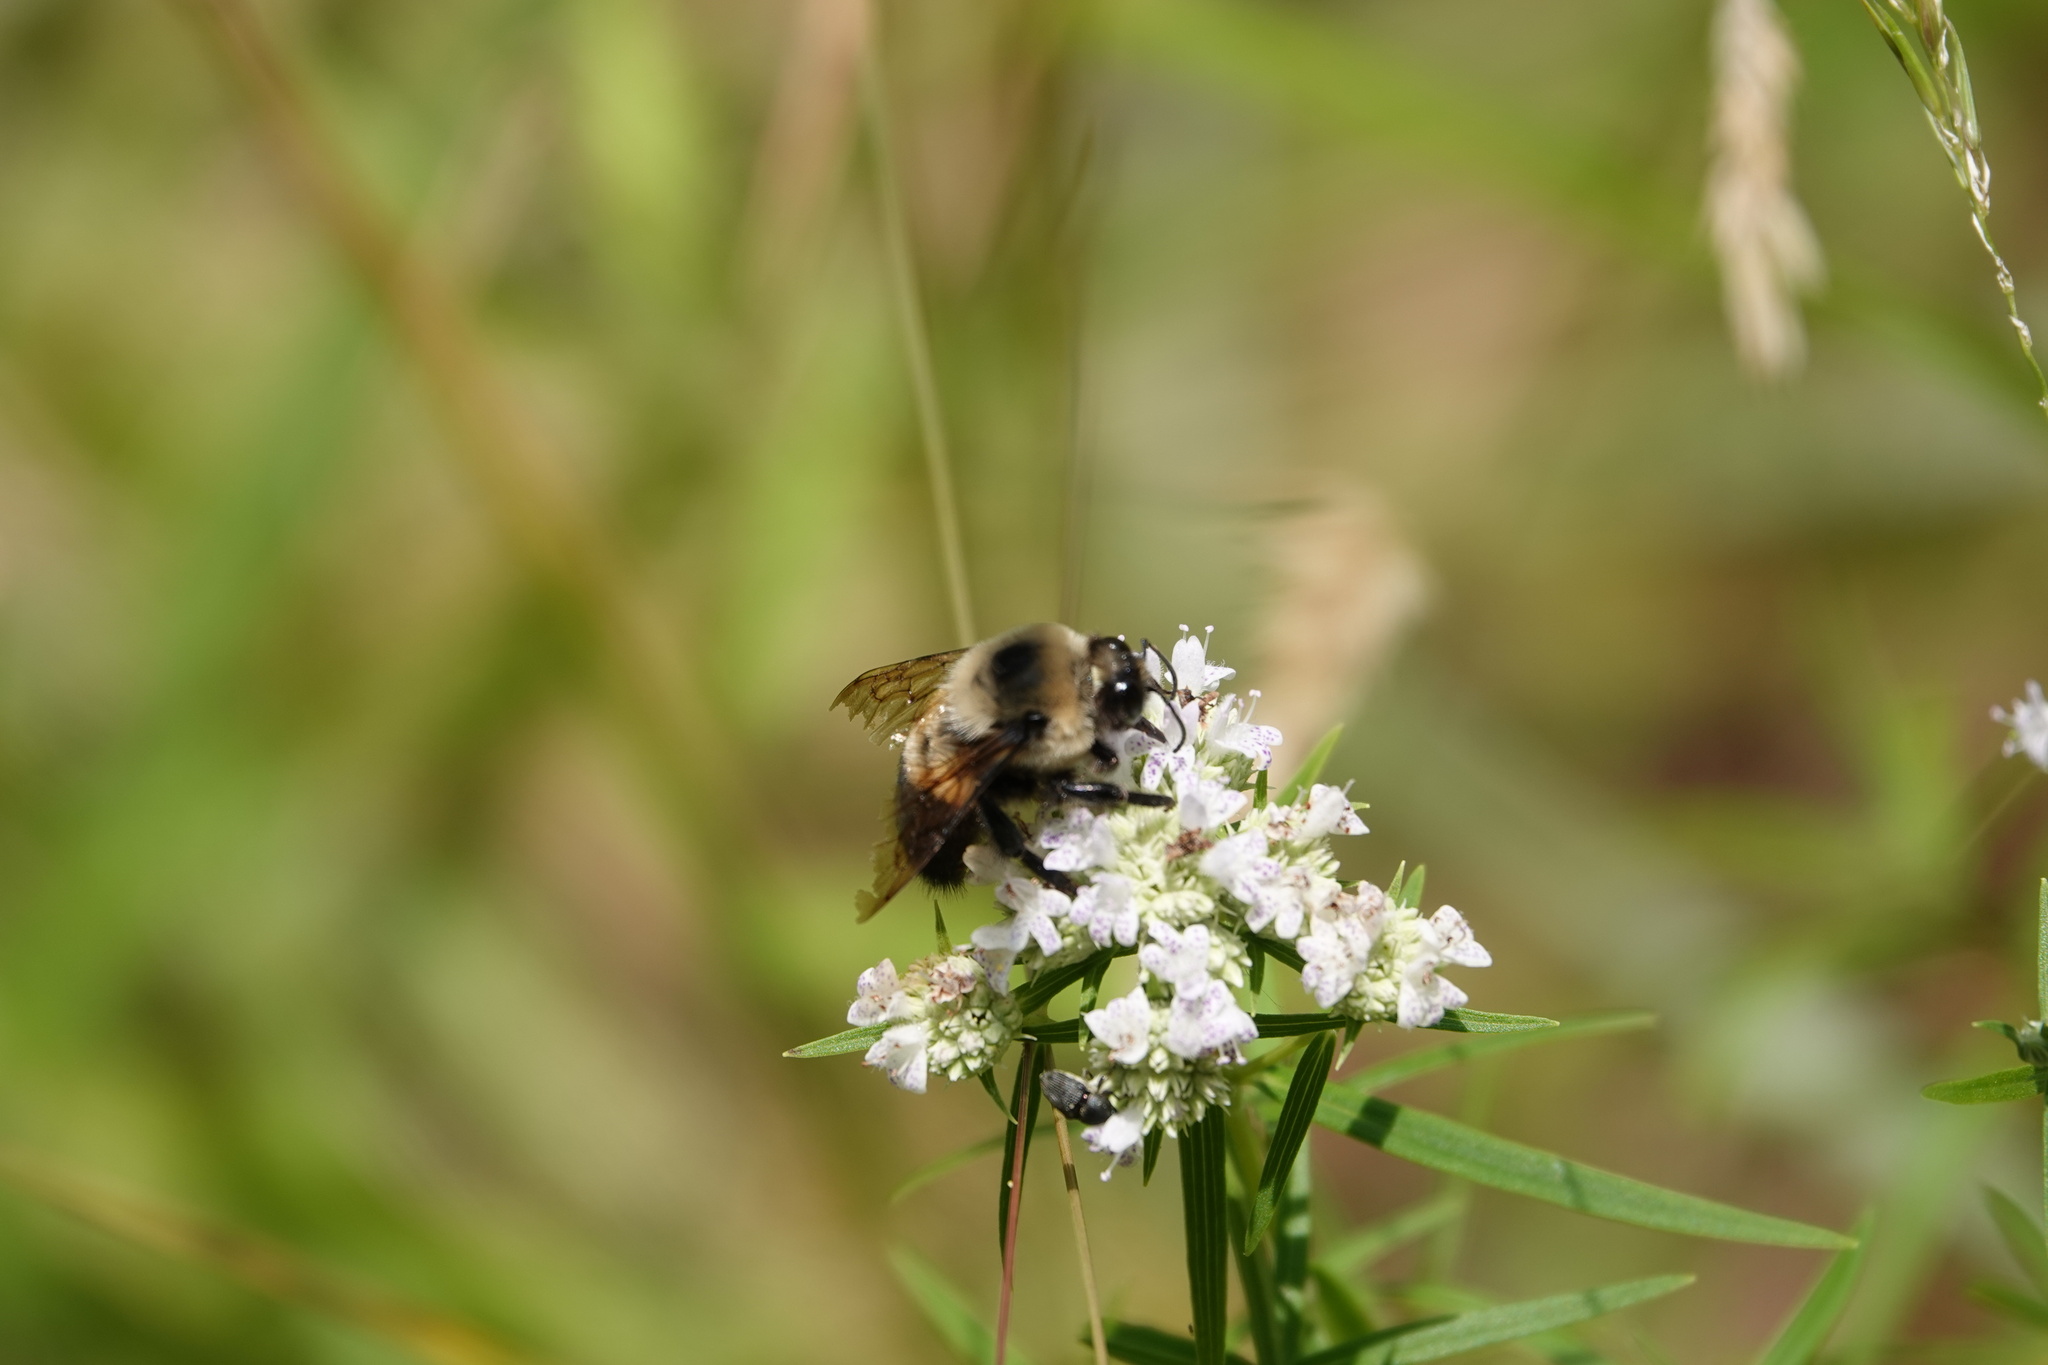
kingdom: Animalia
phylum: Arthropoda
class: Insecta
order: Hymenoptera
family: Apidae
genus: Bombus
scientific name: Bombus griseocollis
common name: Brown-belted bumble bee
